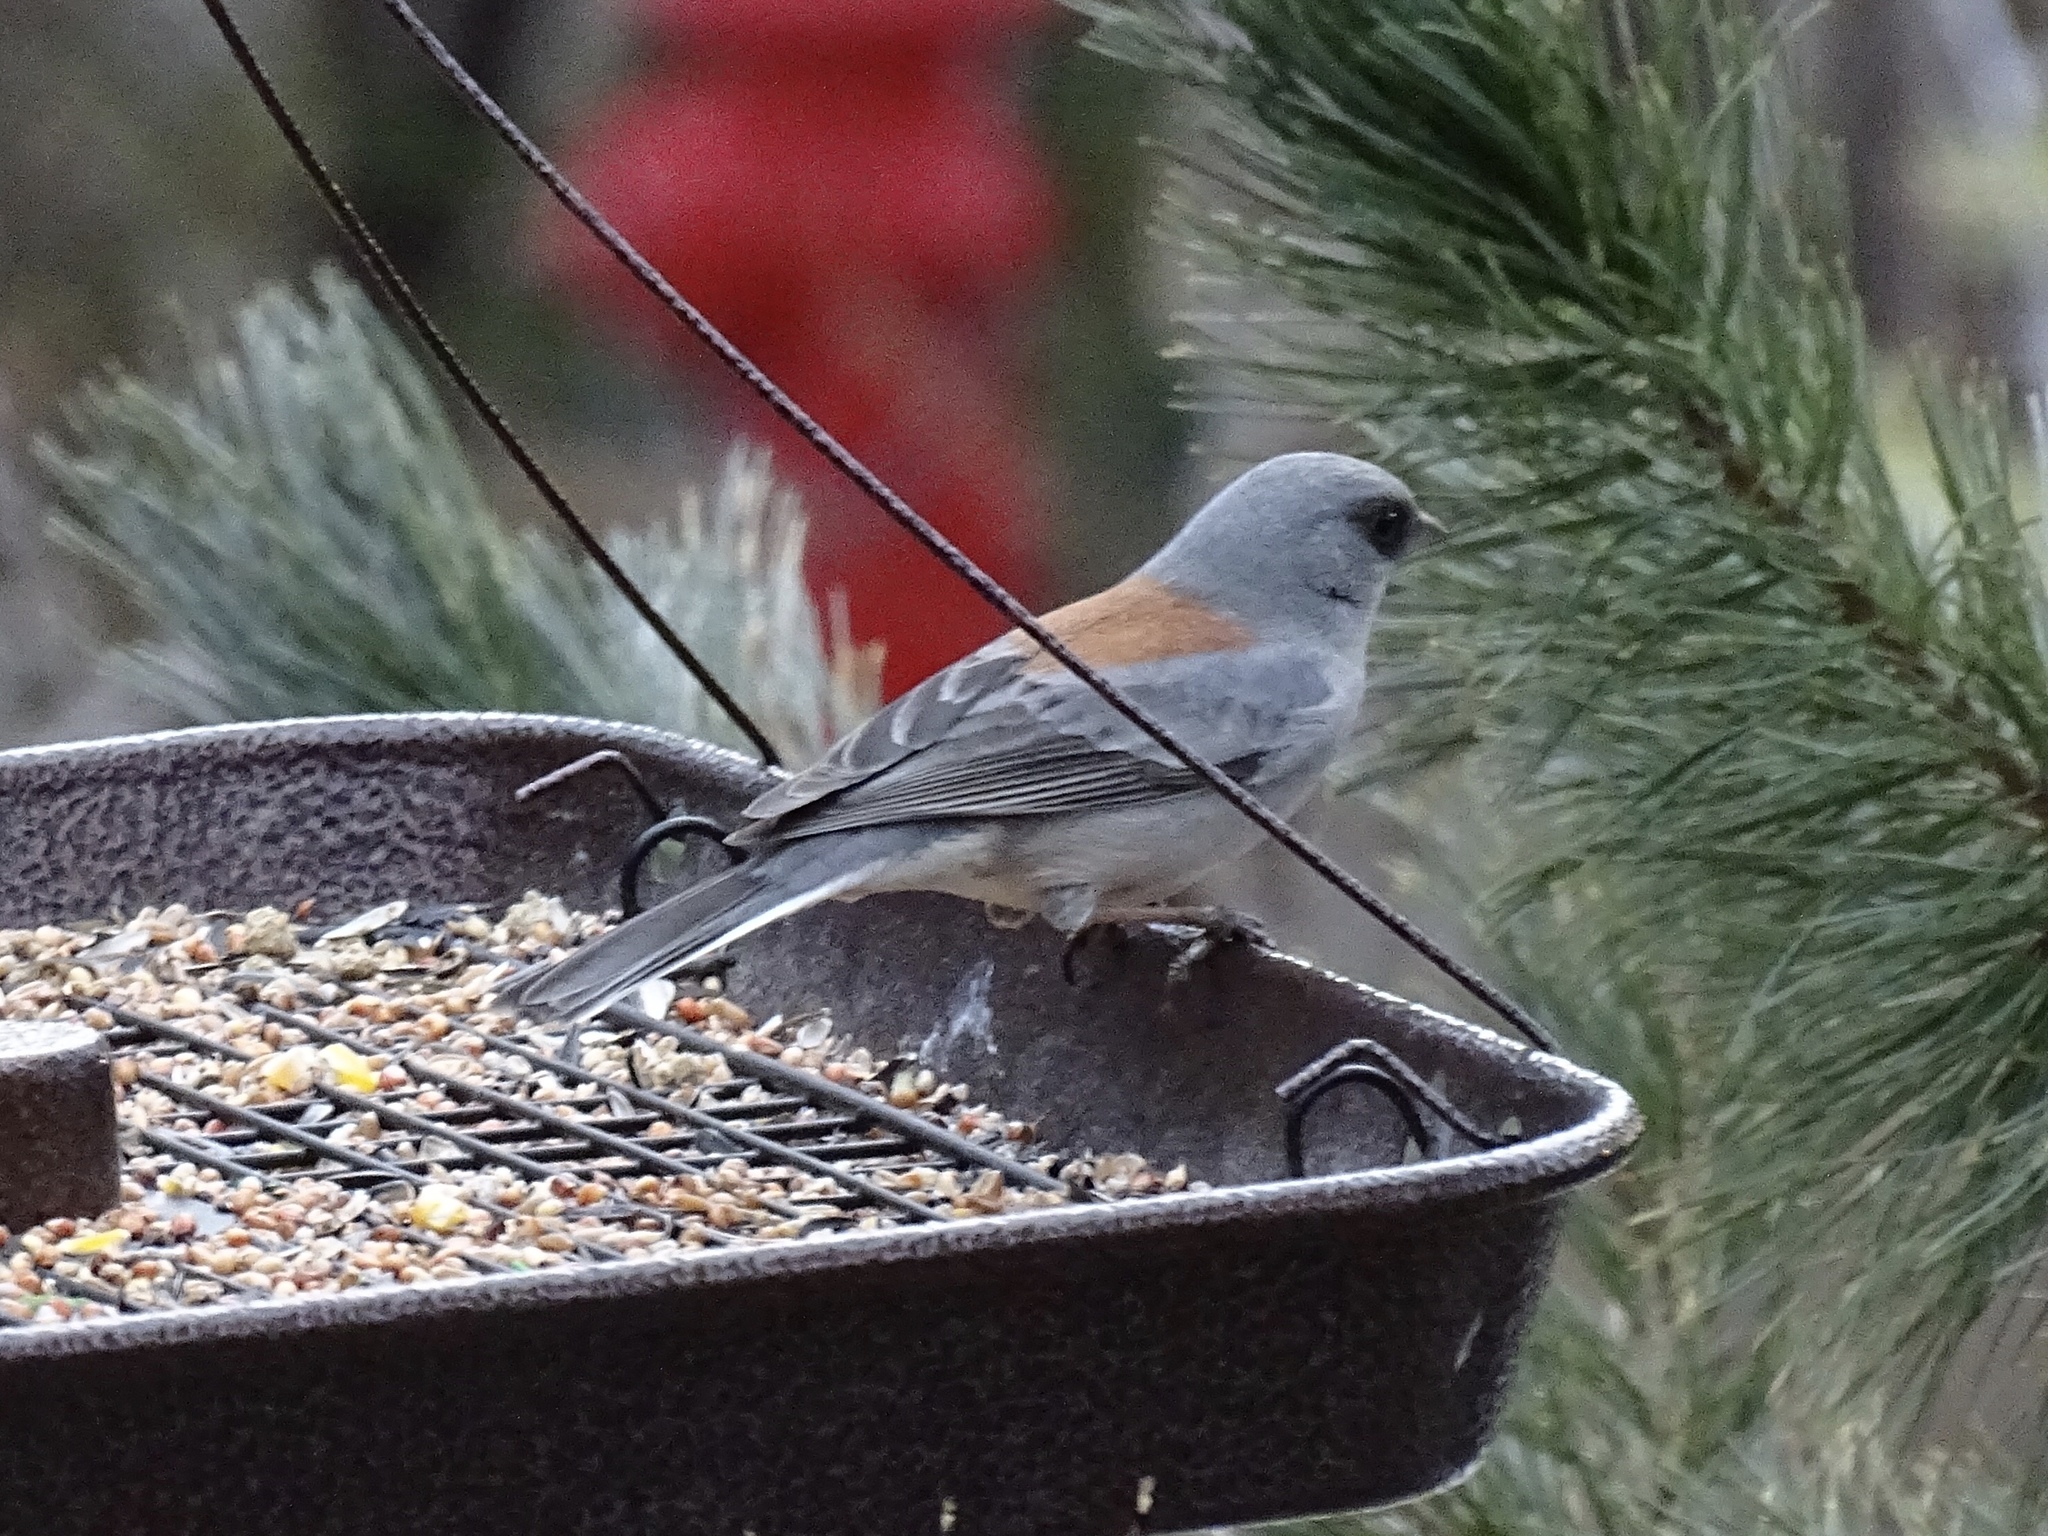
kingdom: Animalia
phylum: Chordata
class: Aves
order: Passeriformes
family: Passerellidae
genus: Junco
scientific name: Junco hyemalis
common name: Dark-eyed junco
